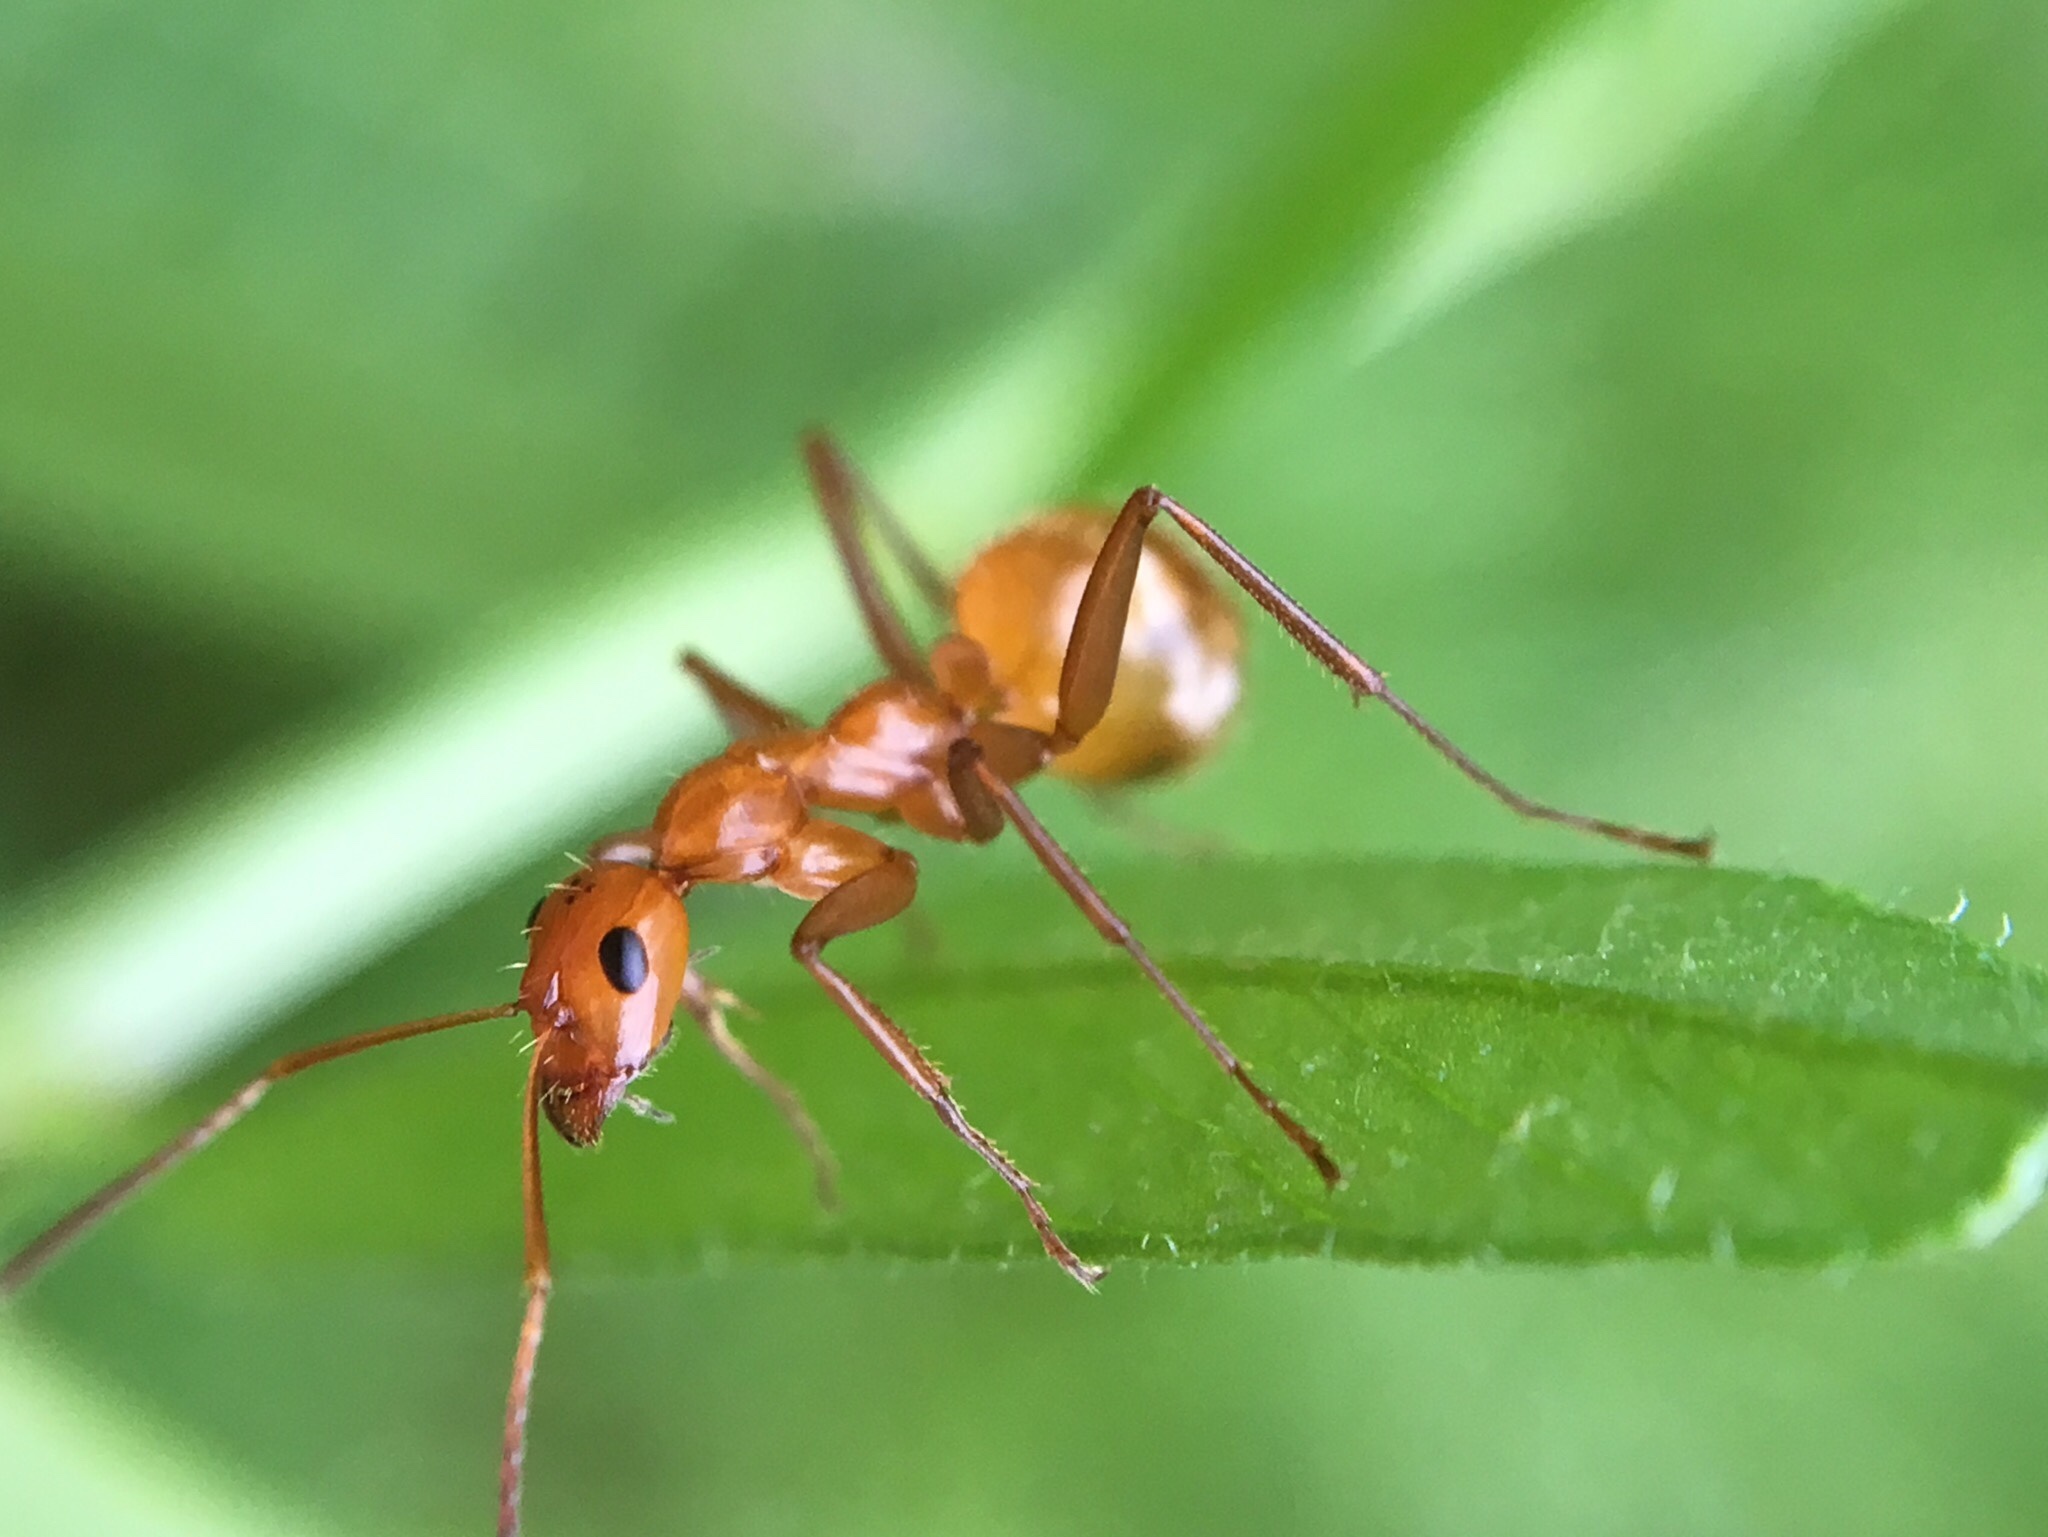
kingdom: Animalia
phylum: Arthropoda
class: Insecta
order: Hymenoptera
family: Formicidae
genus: Formica
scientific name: Formica biophilica
